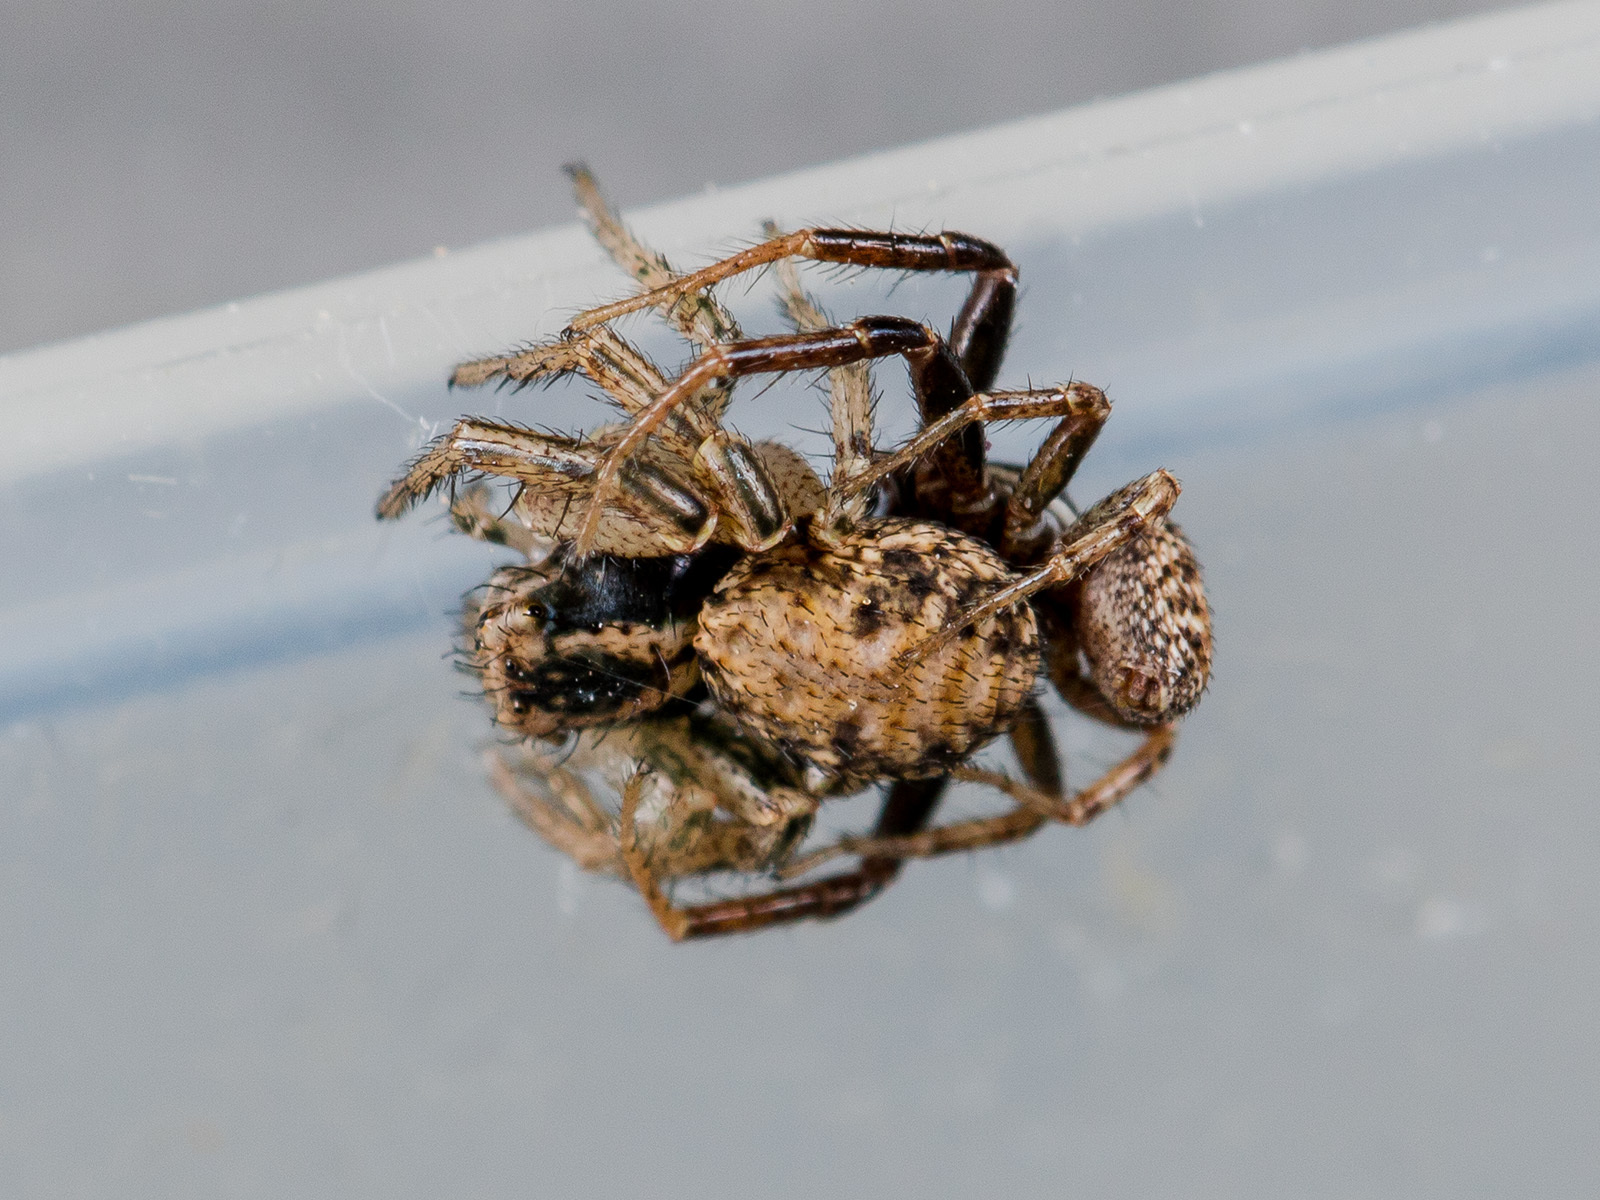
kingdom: Animalia
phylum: Arthropoda
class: Arachnida
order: Araneae
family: Thomisidae
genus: Psammitis
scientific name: Psammitis minor
